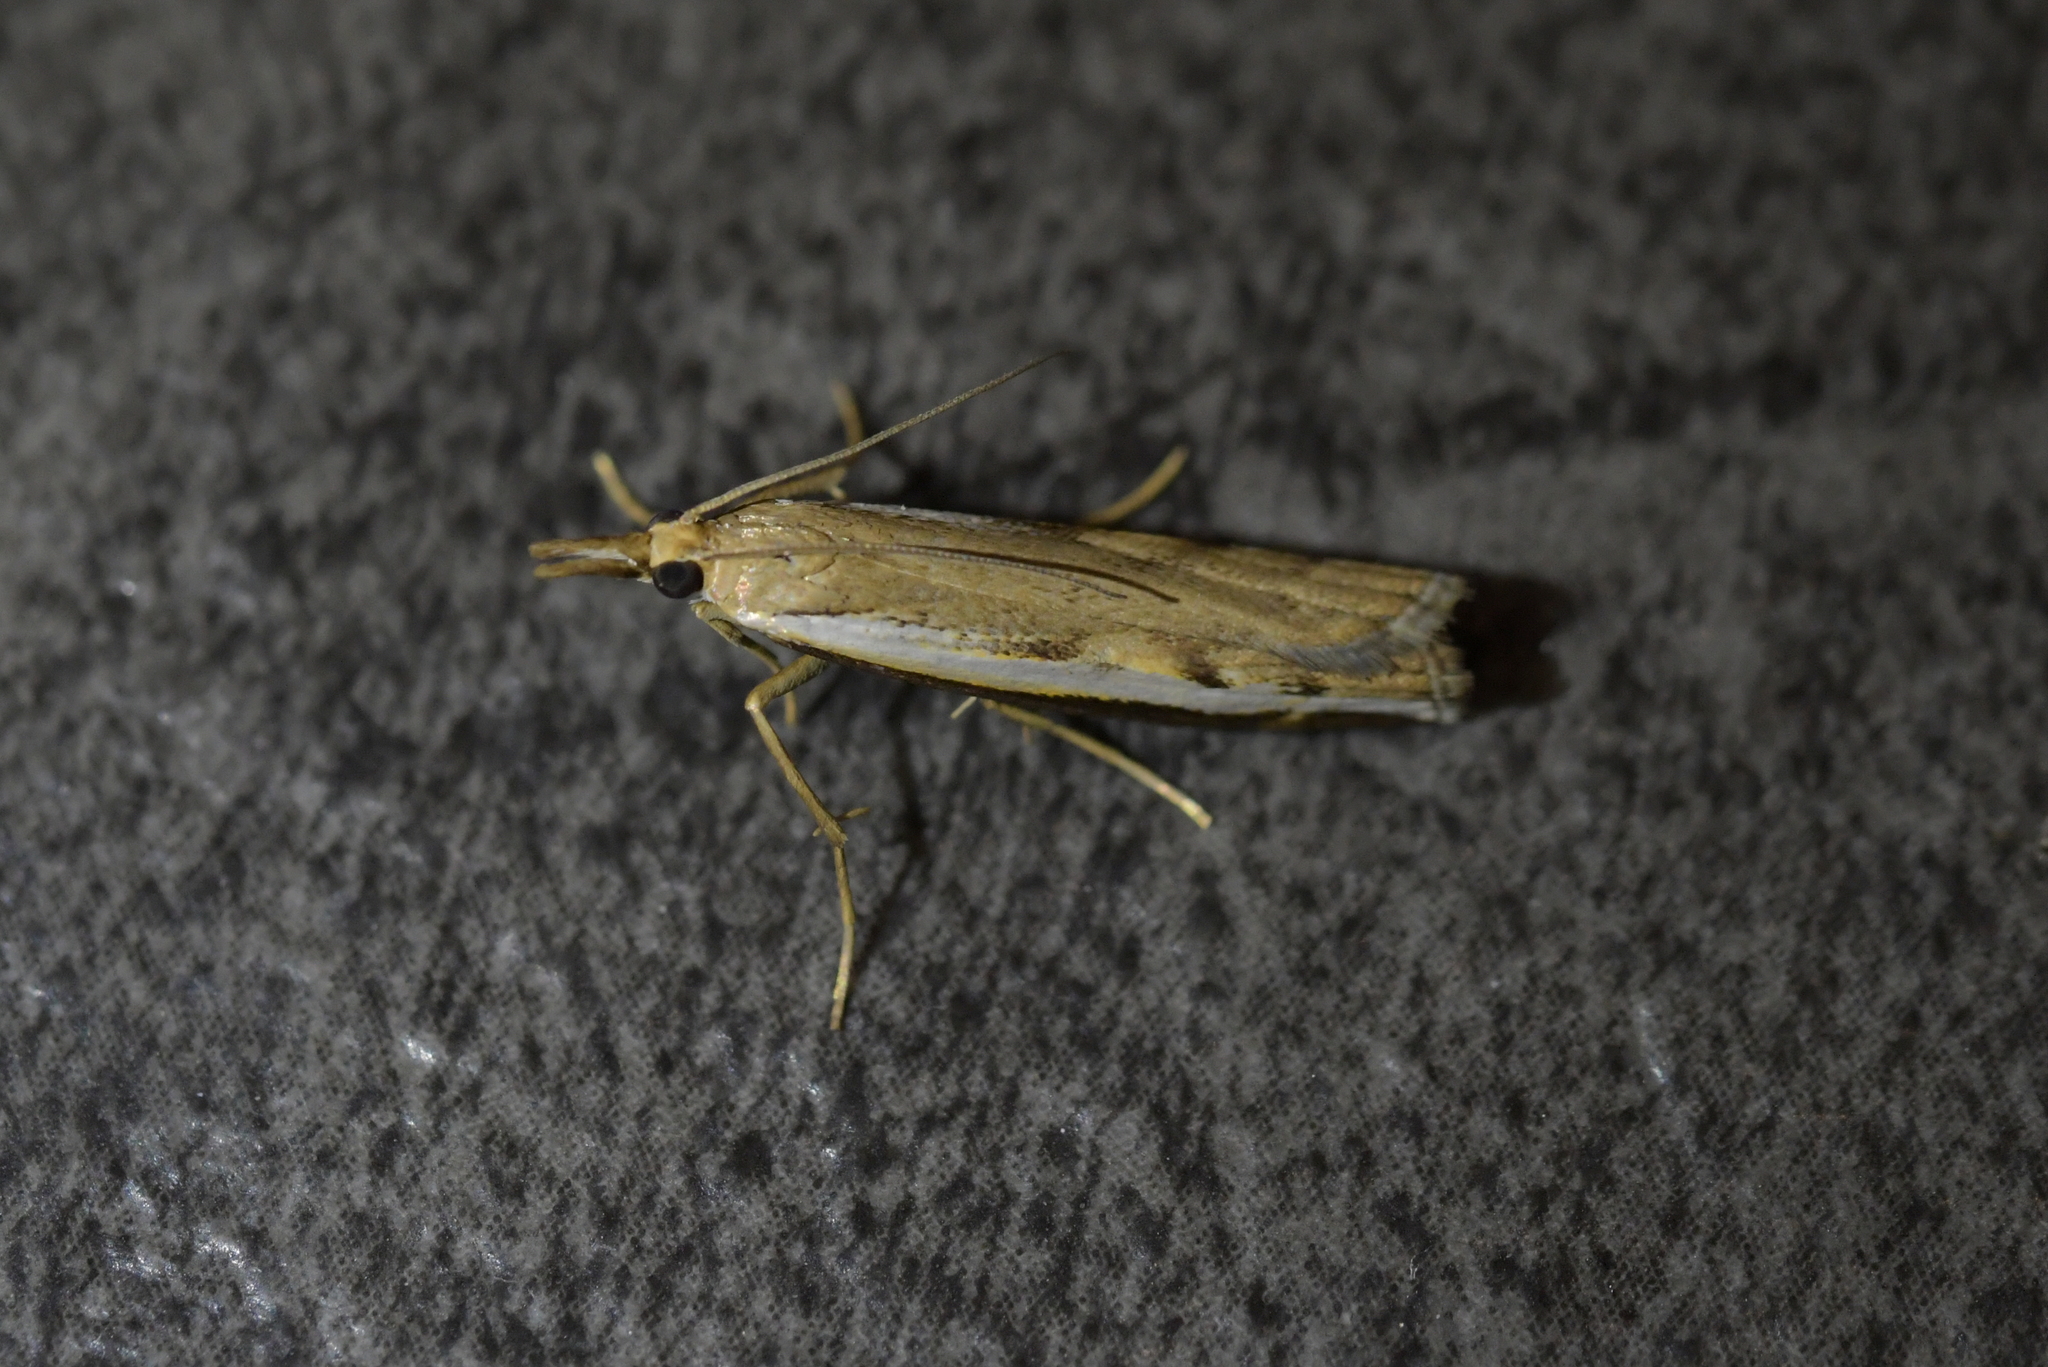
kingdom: Animalia
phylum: Arthropoda
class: Insecta
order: Lepidoptera
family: Crambidae
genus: Orocrambus
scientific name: Orocrambus flexuosellus
